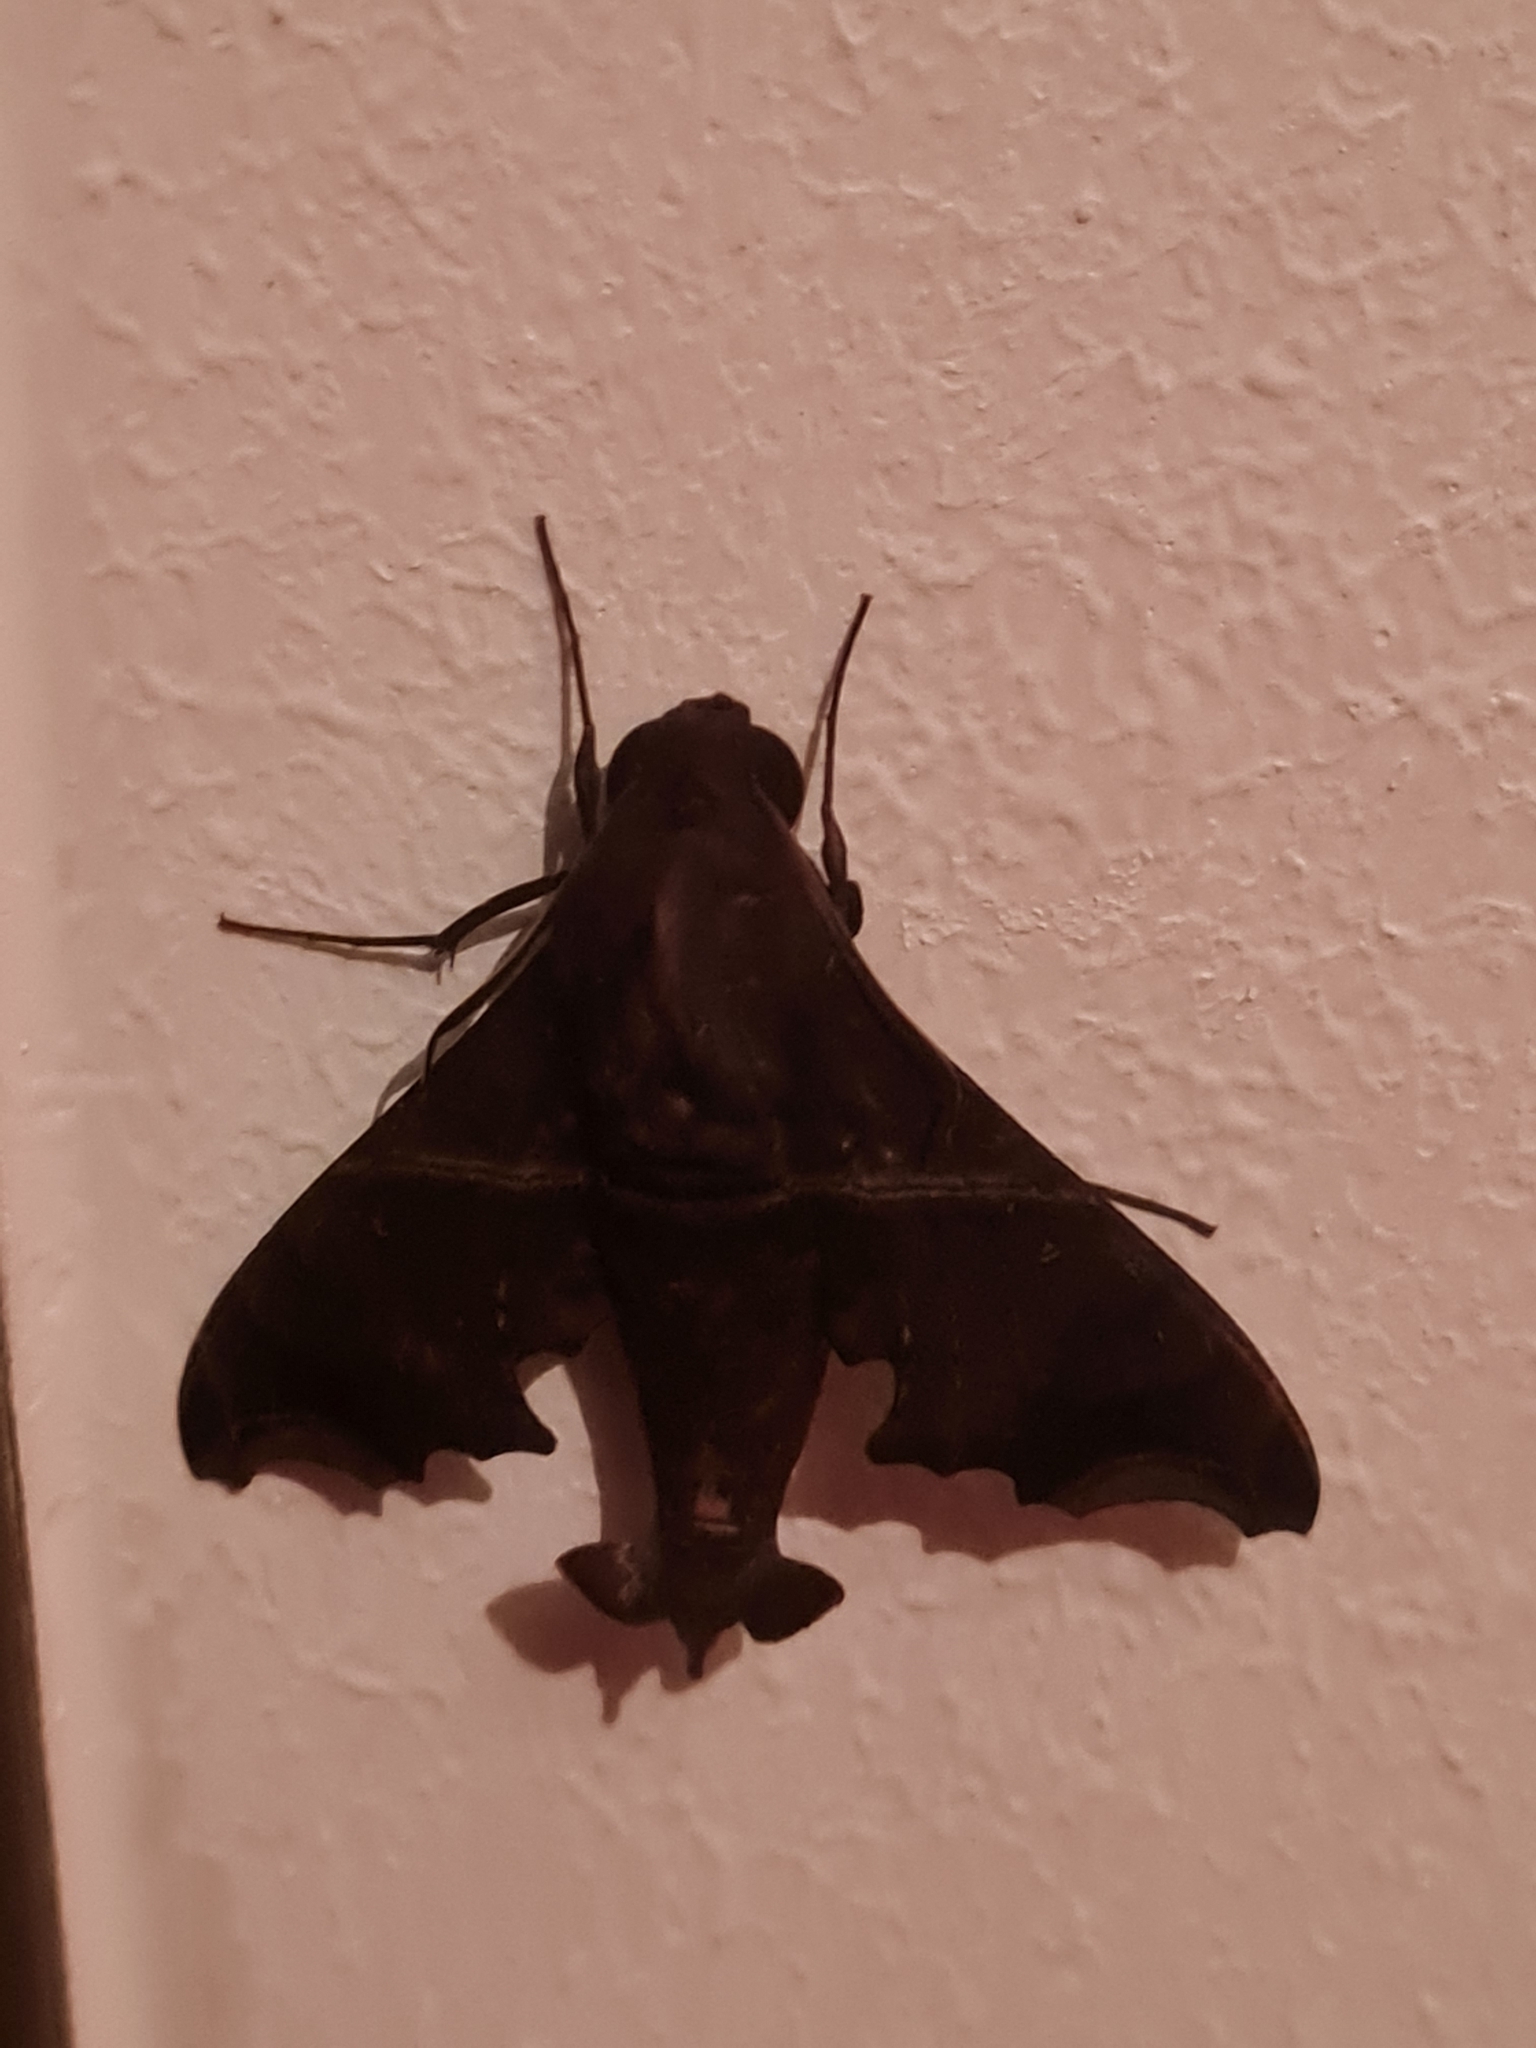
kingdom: Animalia
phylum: Arthropoda
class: Insecta
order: Lepidoptera
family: Sphingidae
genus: Enyo
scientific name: Enyo ocypete
